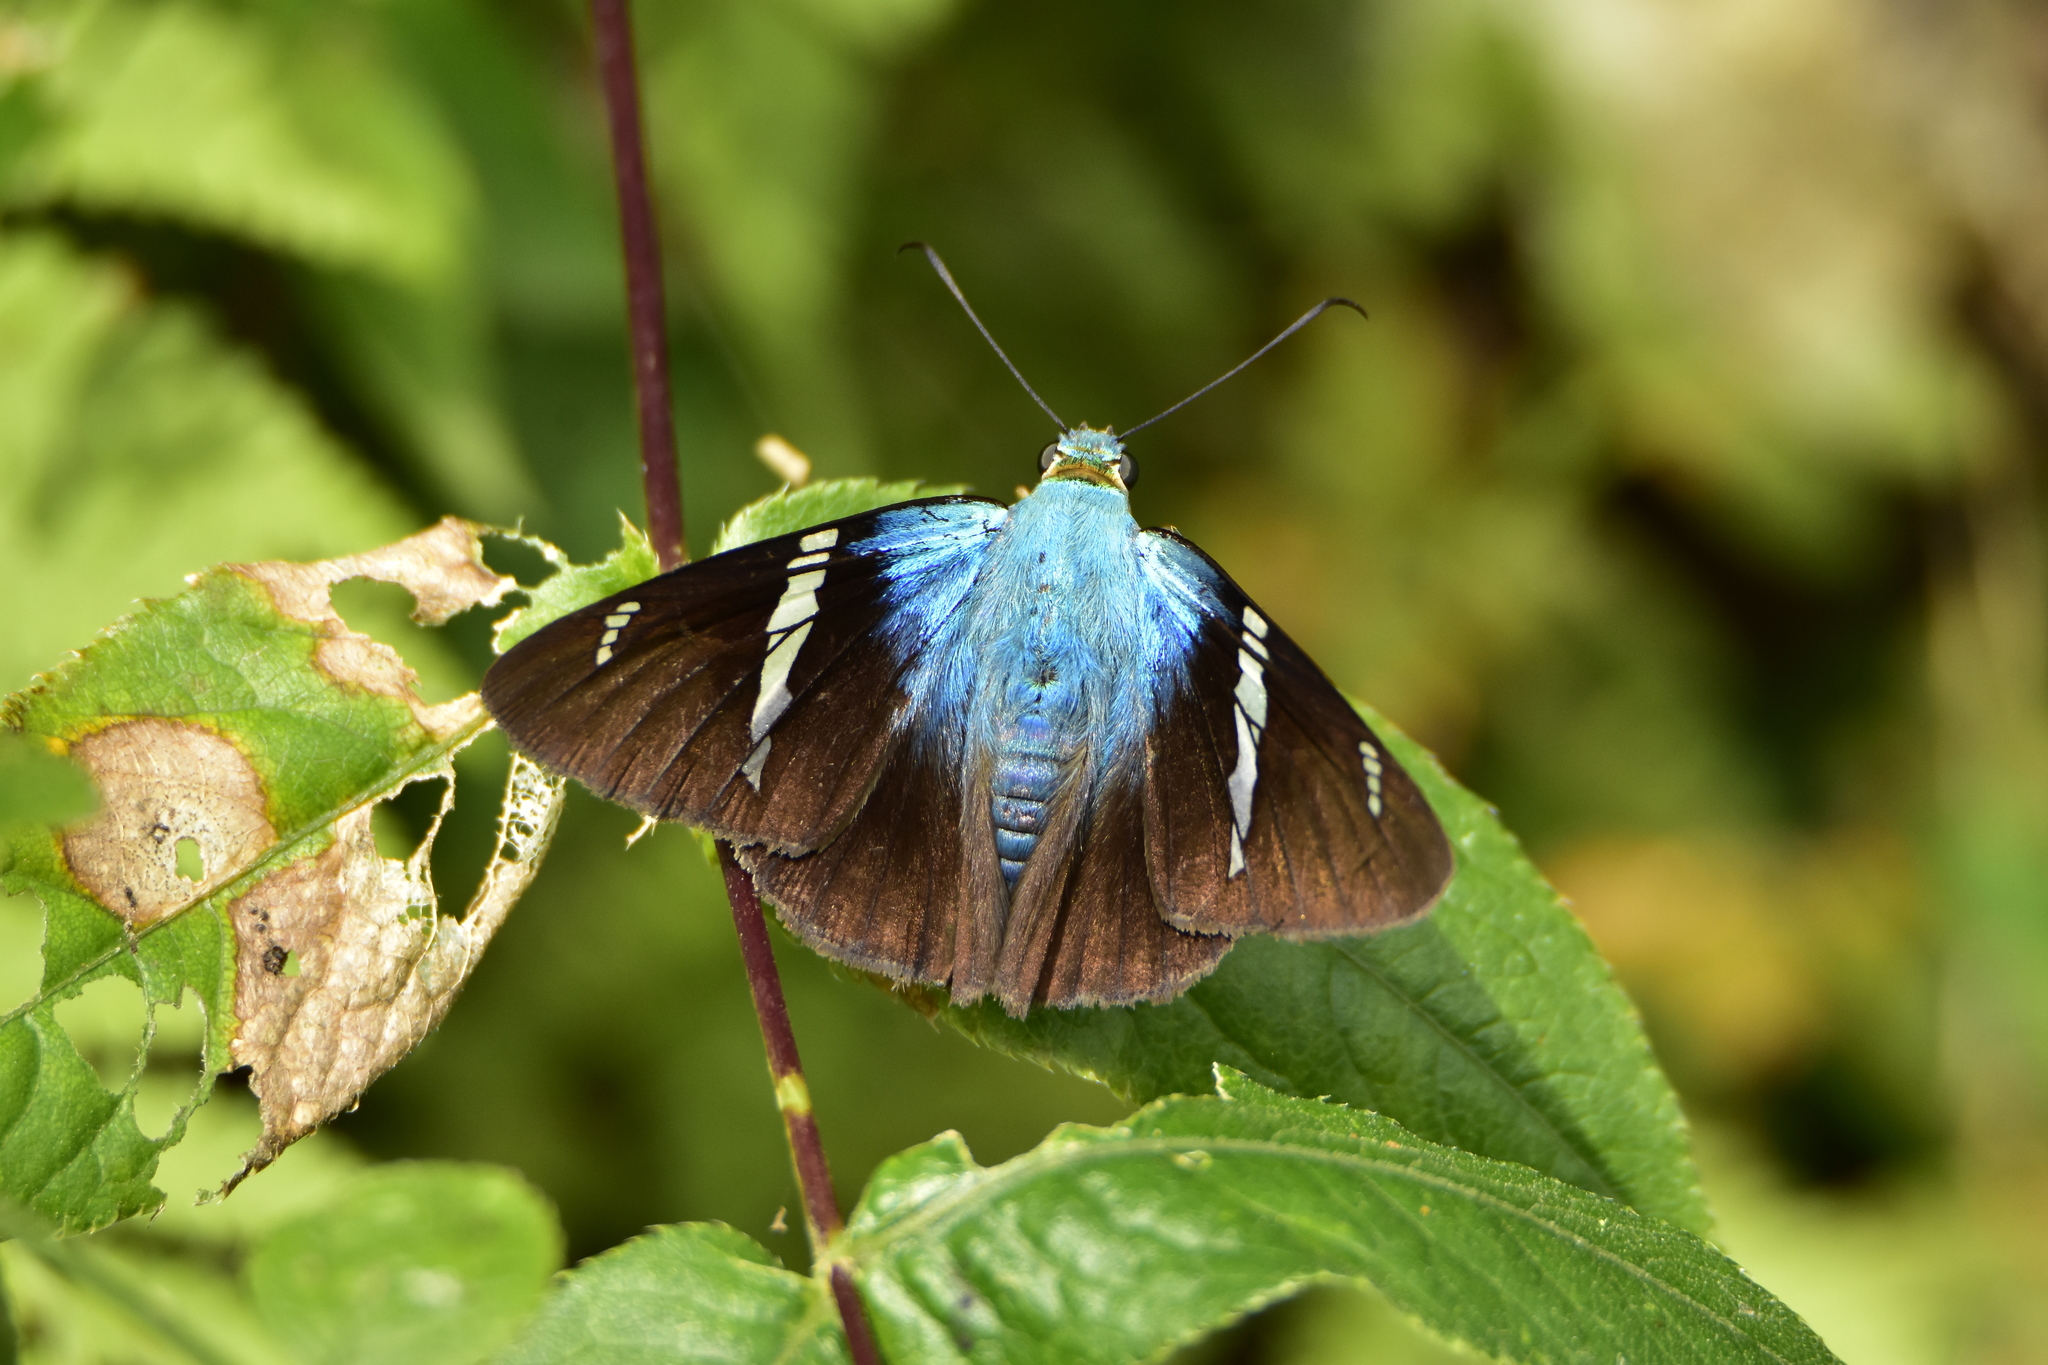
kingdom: Animalia
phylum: Arthropoda
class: Insecta
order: Lepidoptera
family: Hesperiidae
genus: Astraptes
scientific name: Astraptes fulgerator
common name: Two-barred flasher
